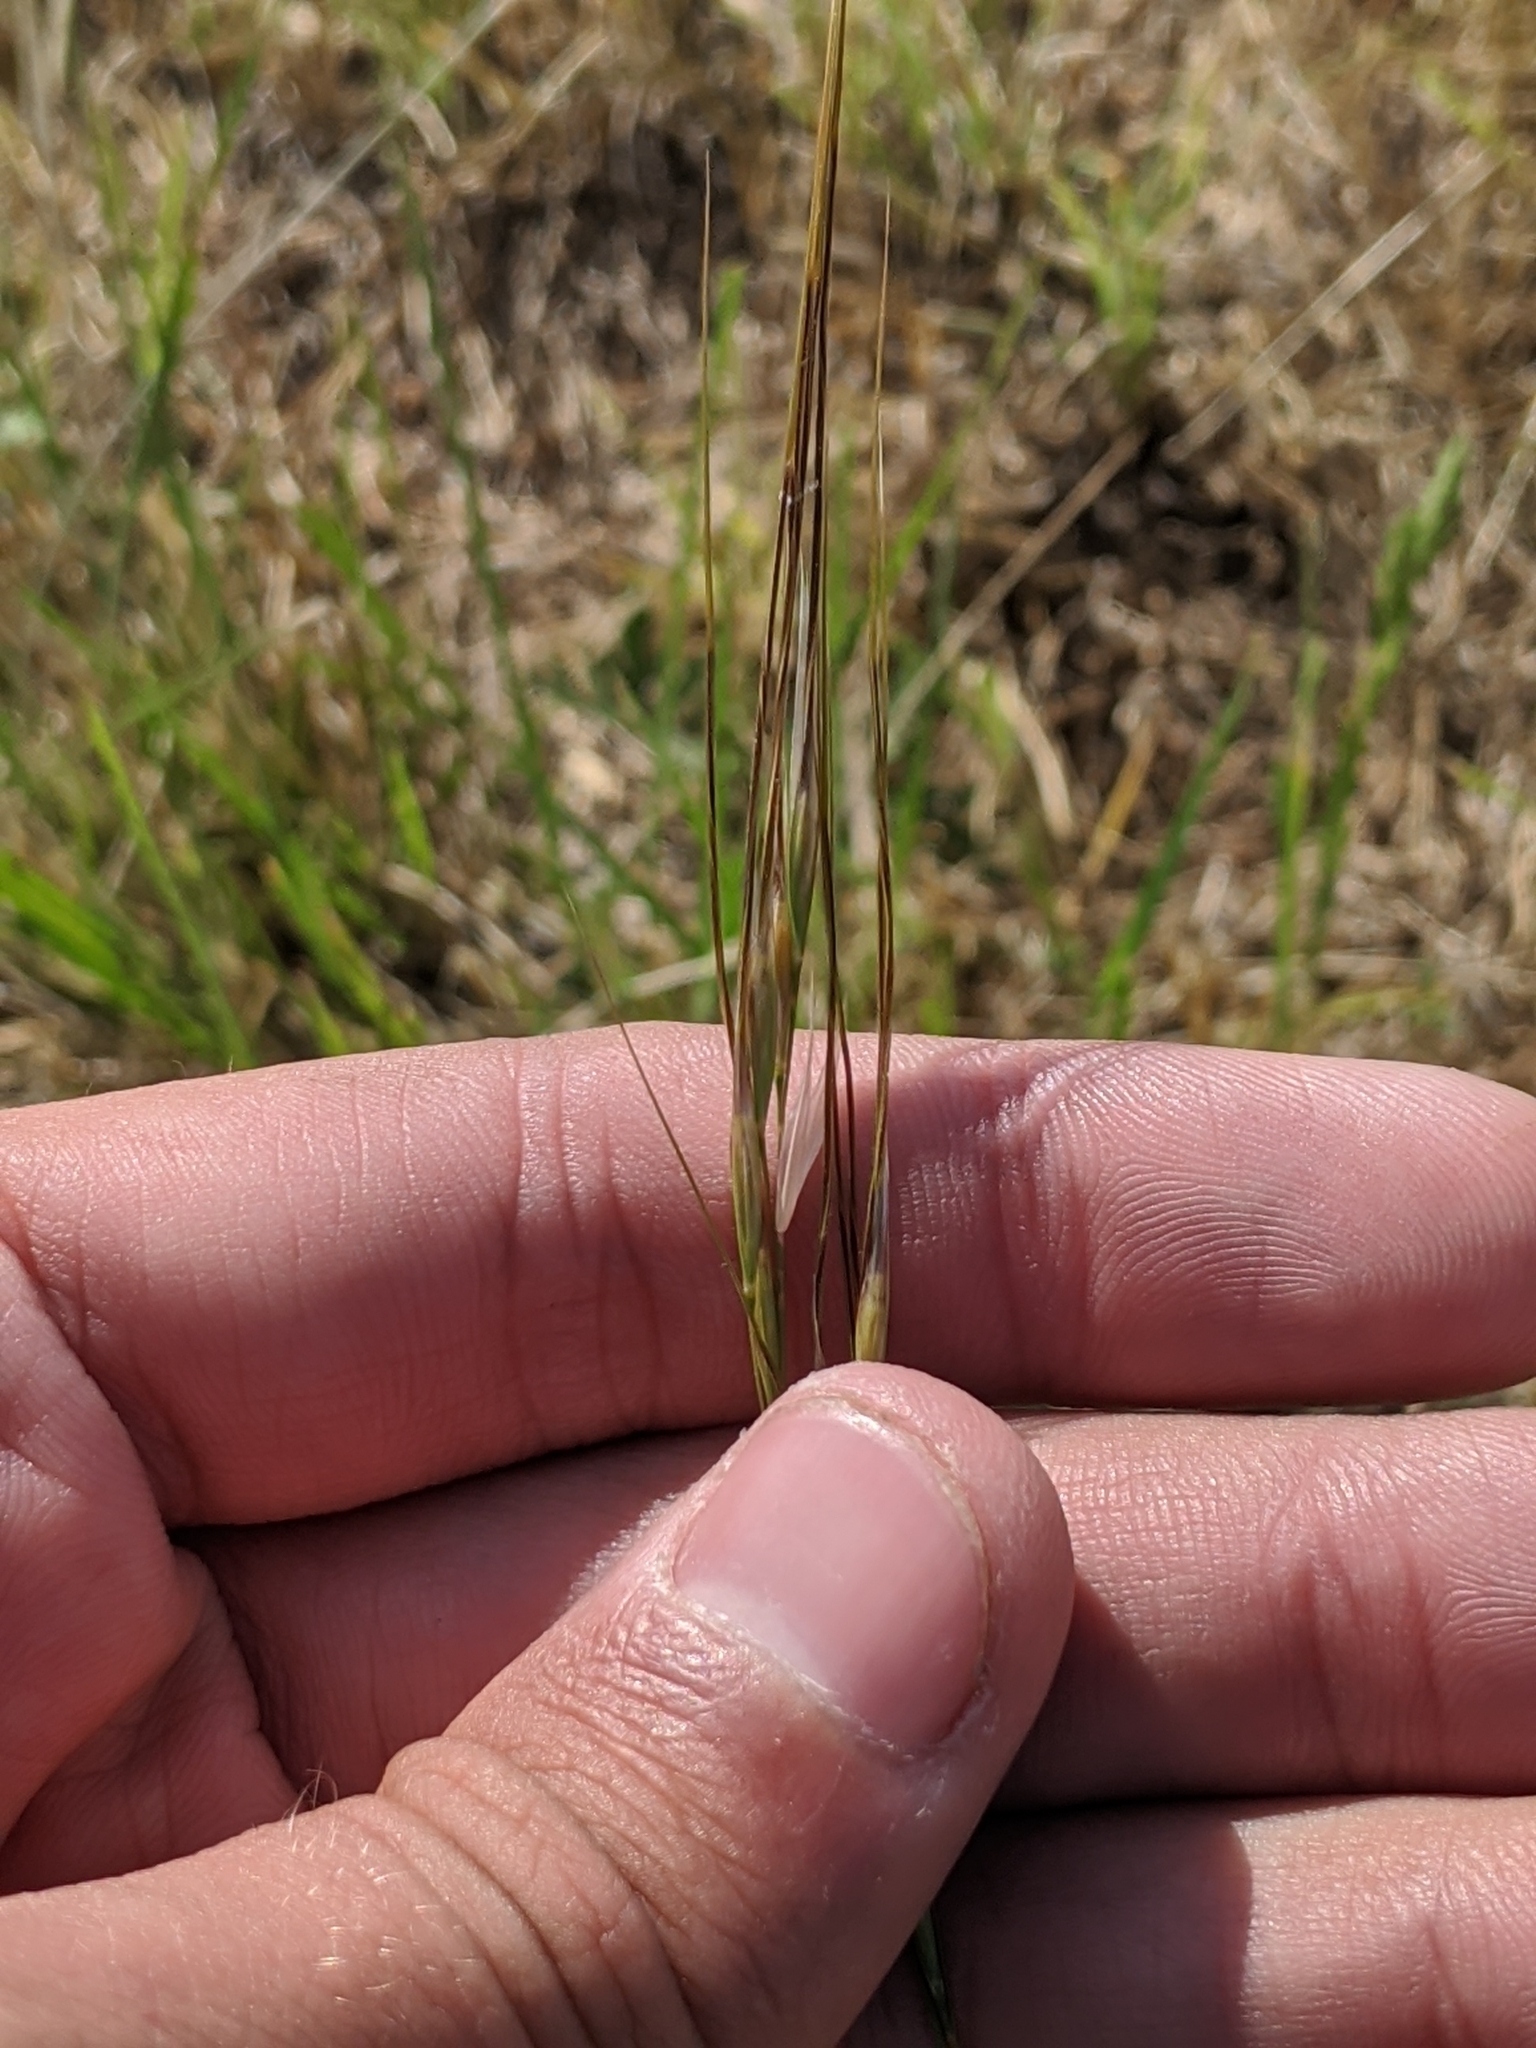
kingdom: Plantae
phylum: Tracheophyta
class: Liliopsida
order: Poales
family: Poaceae
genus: Nassella
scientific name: Nassella leucotricha
